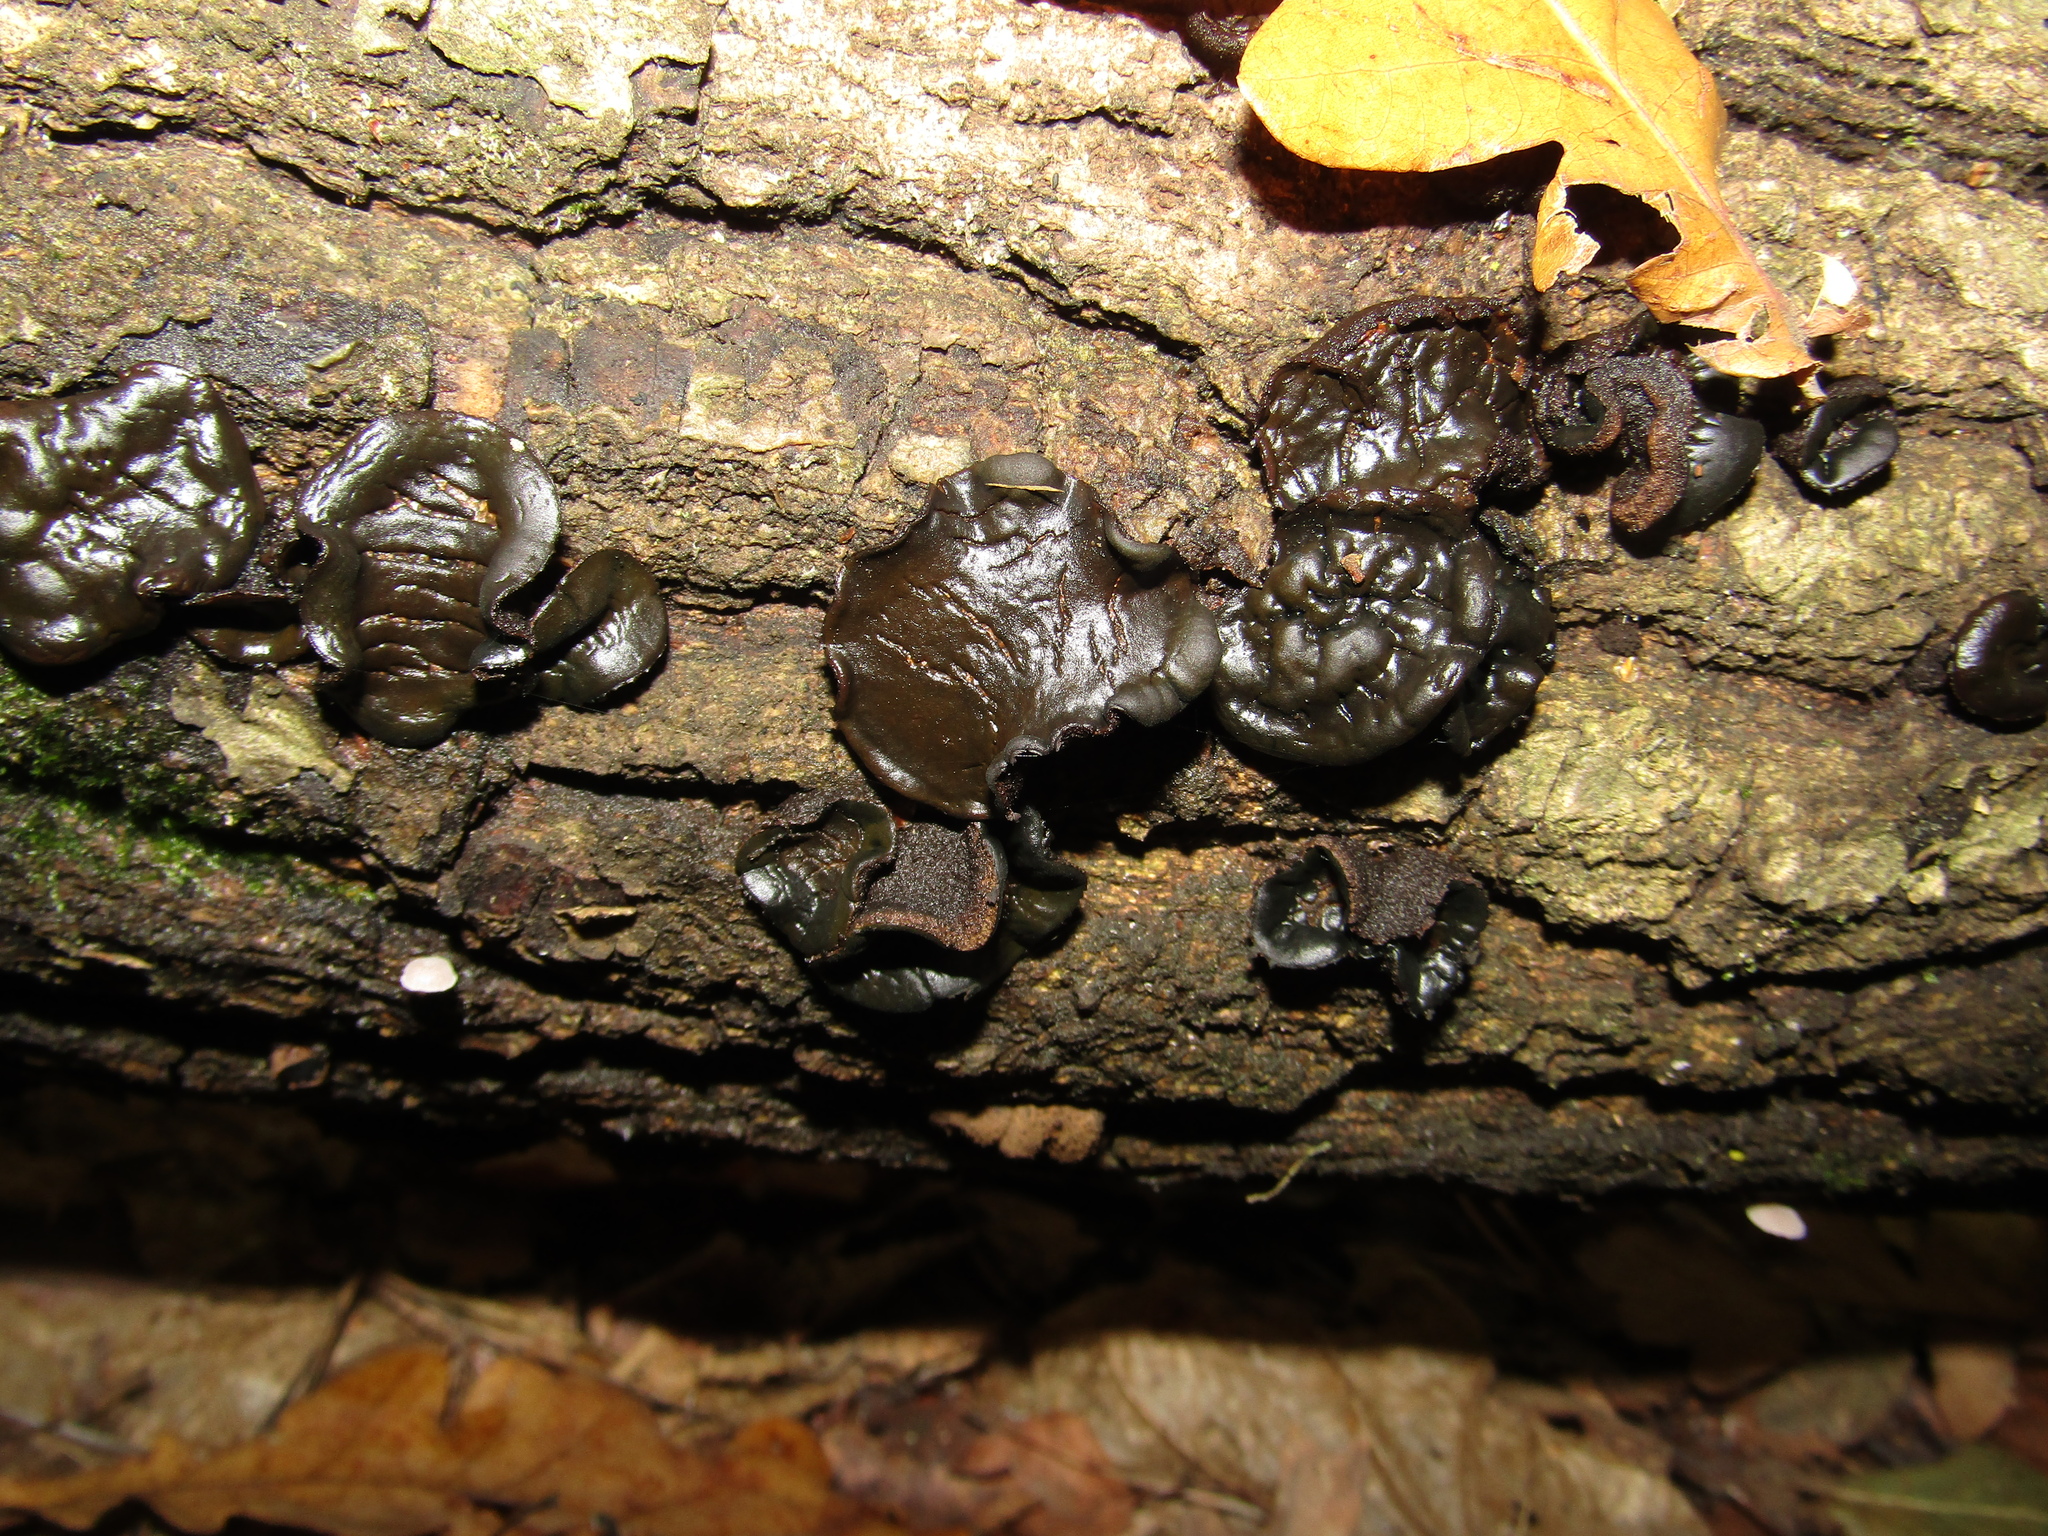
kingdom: Fungi
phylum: Ascomycota
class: Leotiomycetes
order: Phacidiales
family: Phacidiaceae
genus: Bulgaria
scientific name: Bulgaria inquinans
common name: Black bulgar
